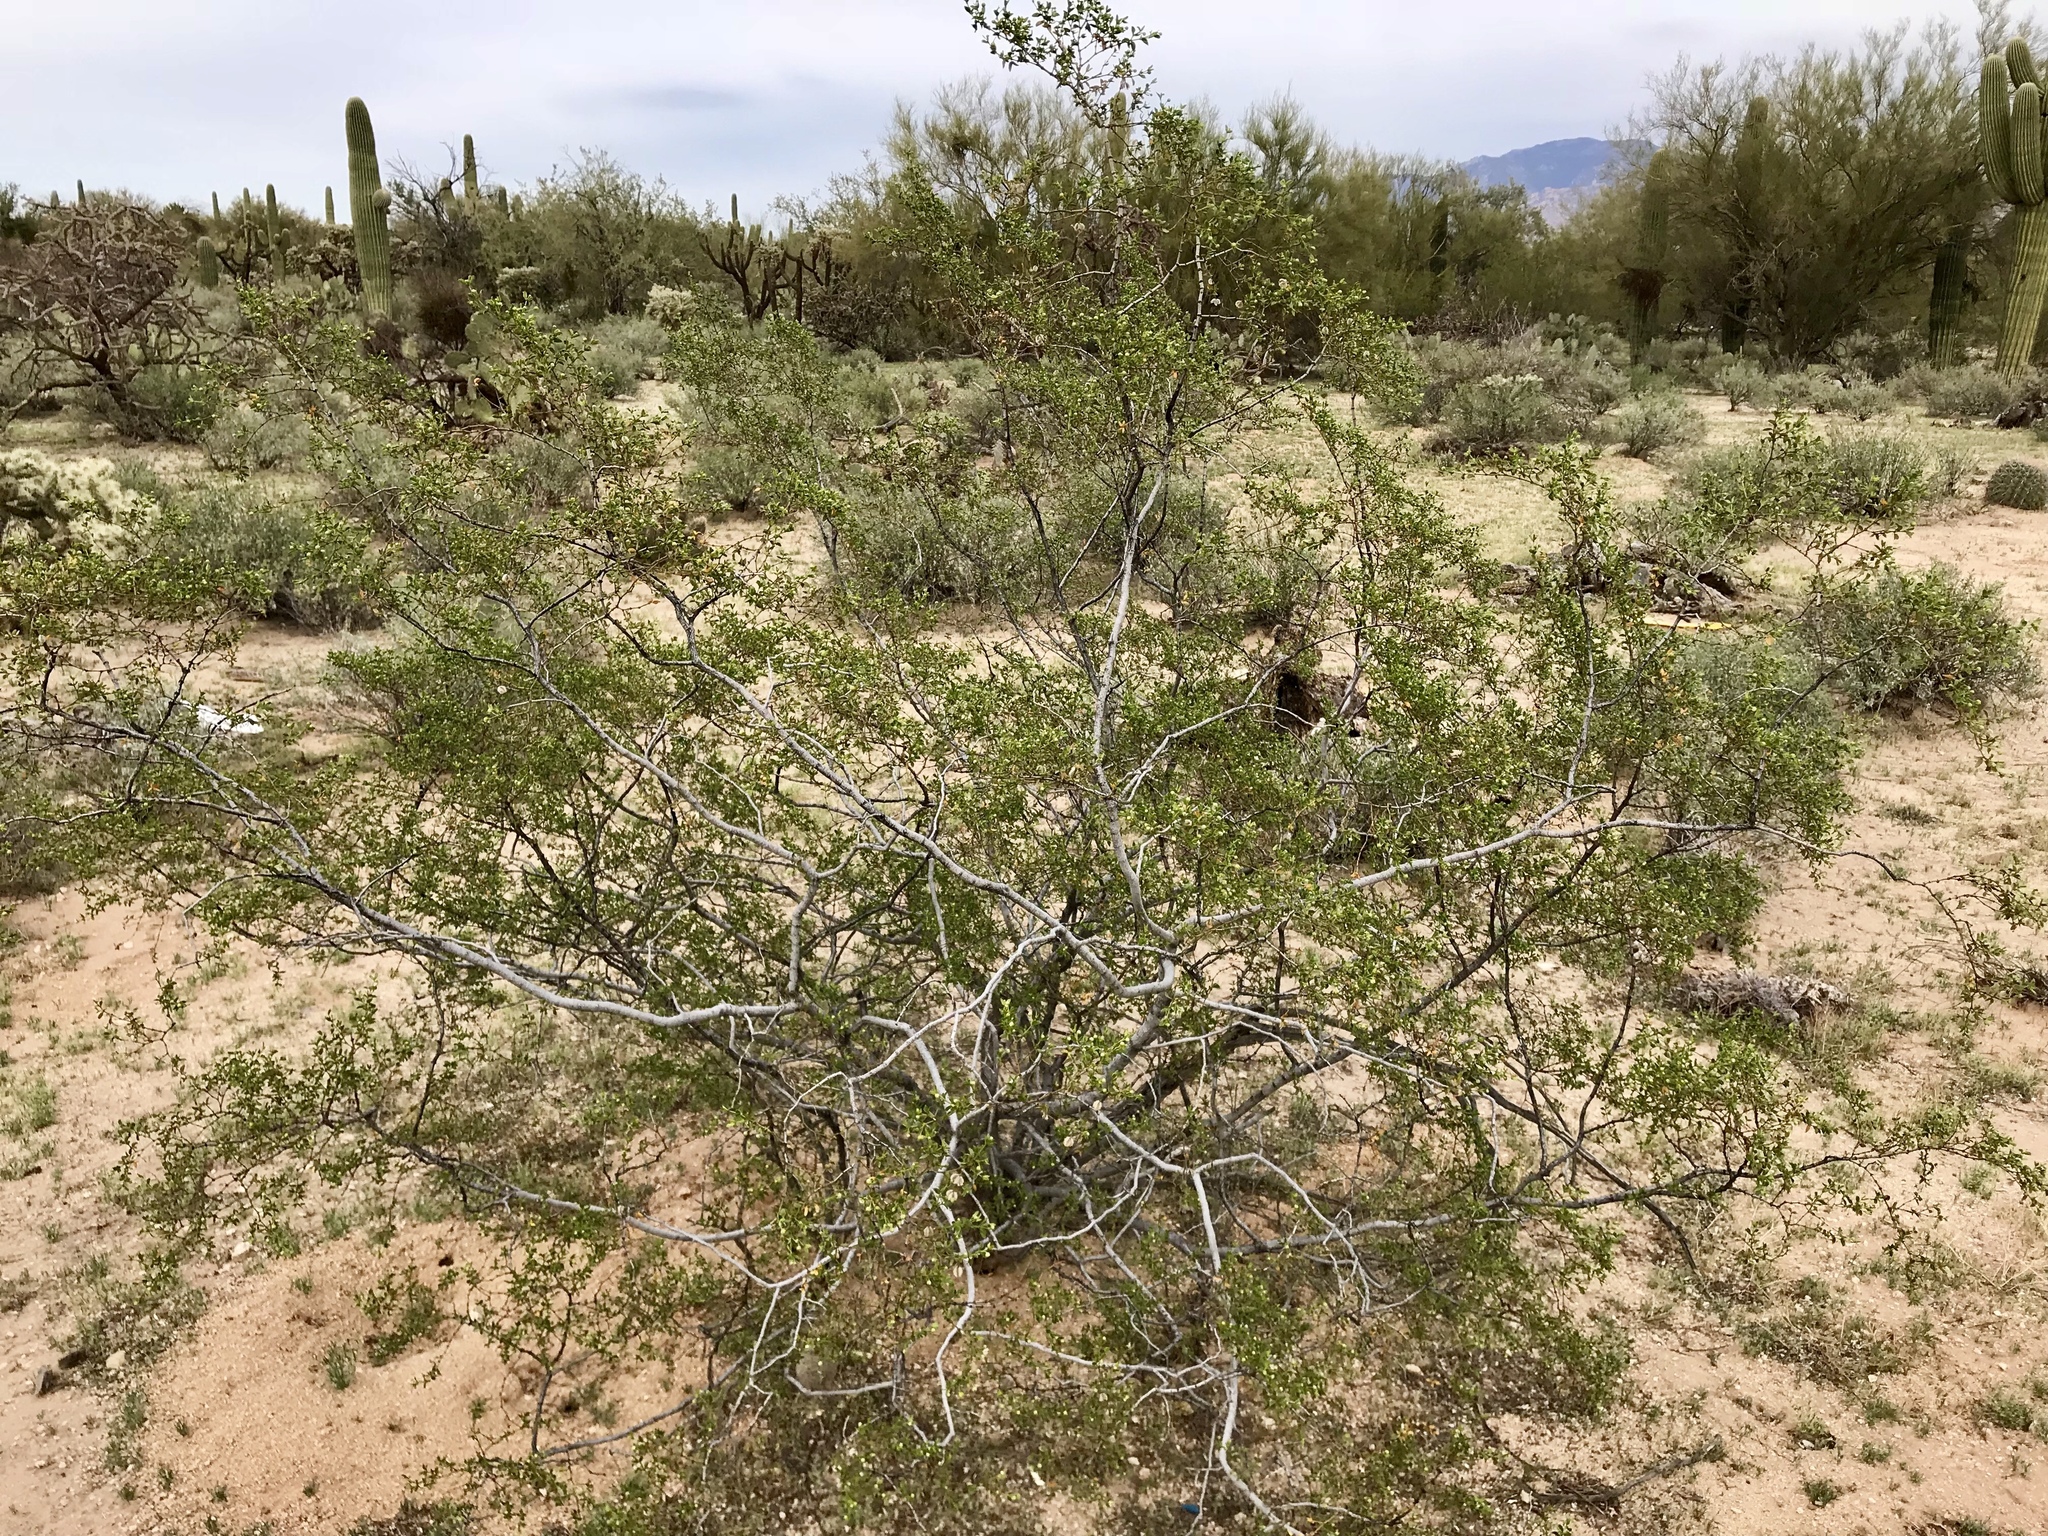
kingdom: Plantae
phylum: Tracheophyta
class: Magnoliopsida
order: Zygophyllales
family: Zygophyllaceae
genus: Larrea
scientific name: Larrea tridentata
